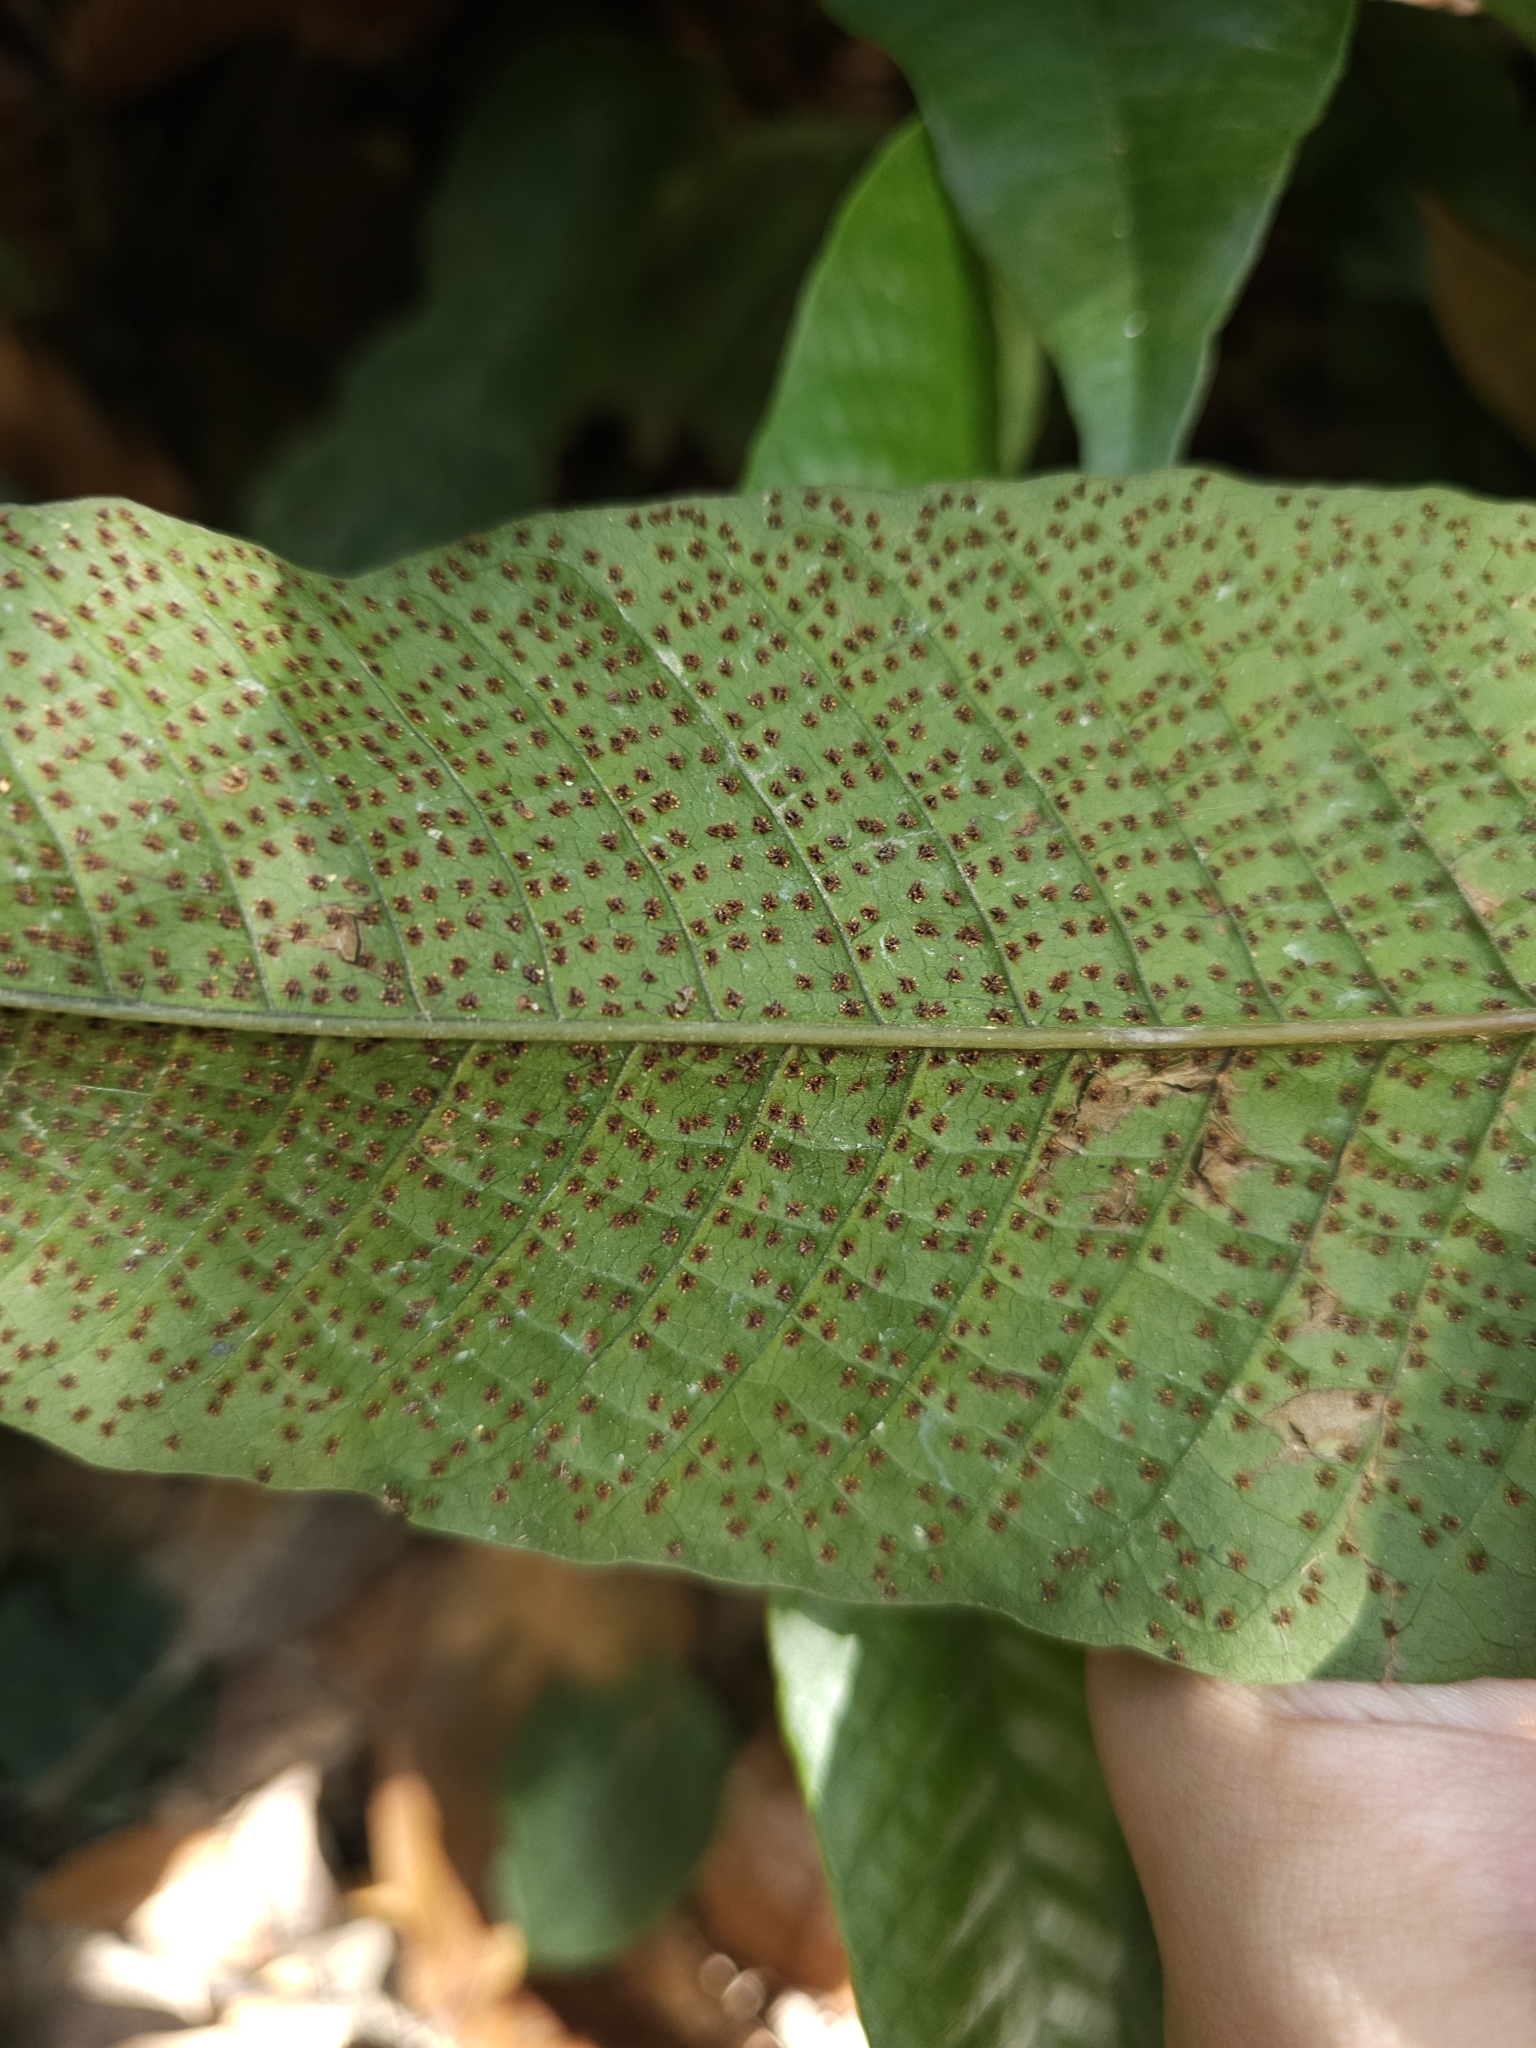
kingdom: Plantae
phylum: Tracheophyta
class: Polypodiopsida
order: Polypodiales
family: Tectariaceae
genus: Tectaria
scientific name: Tectaria singaporiana
